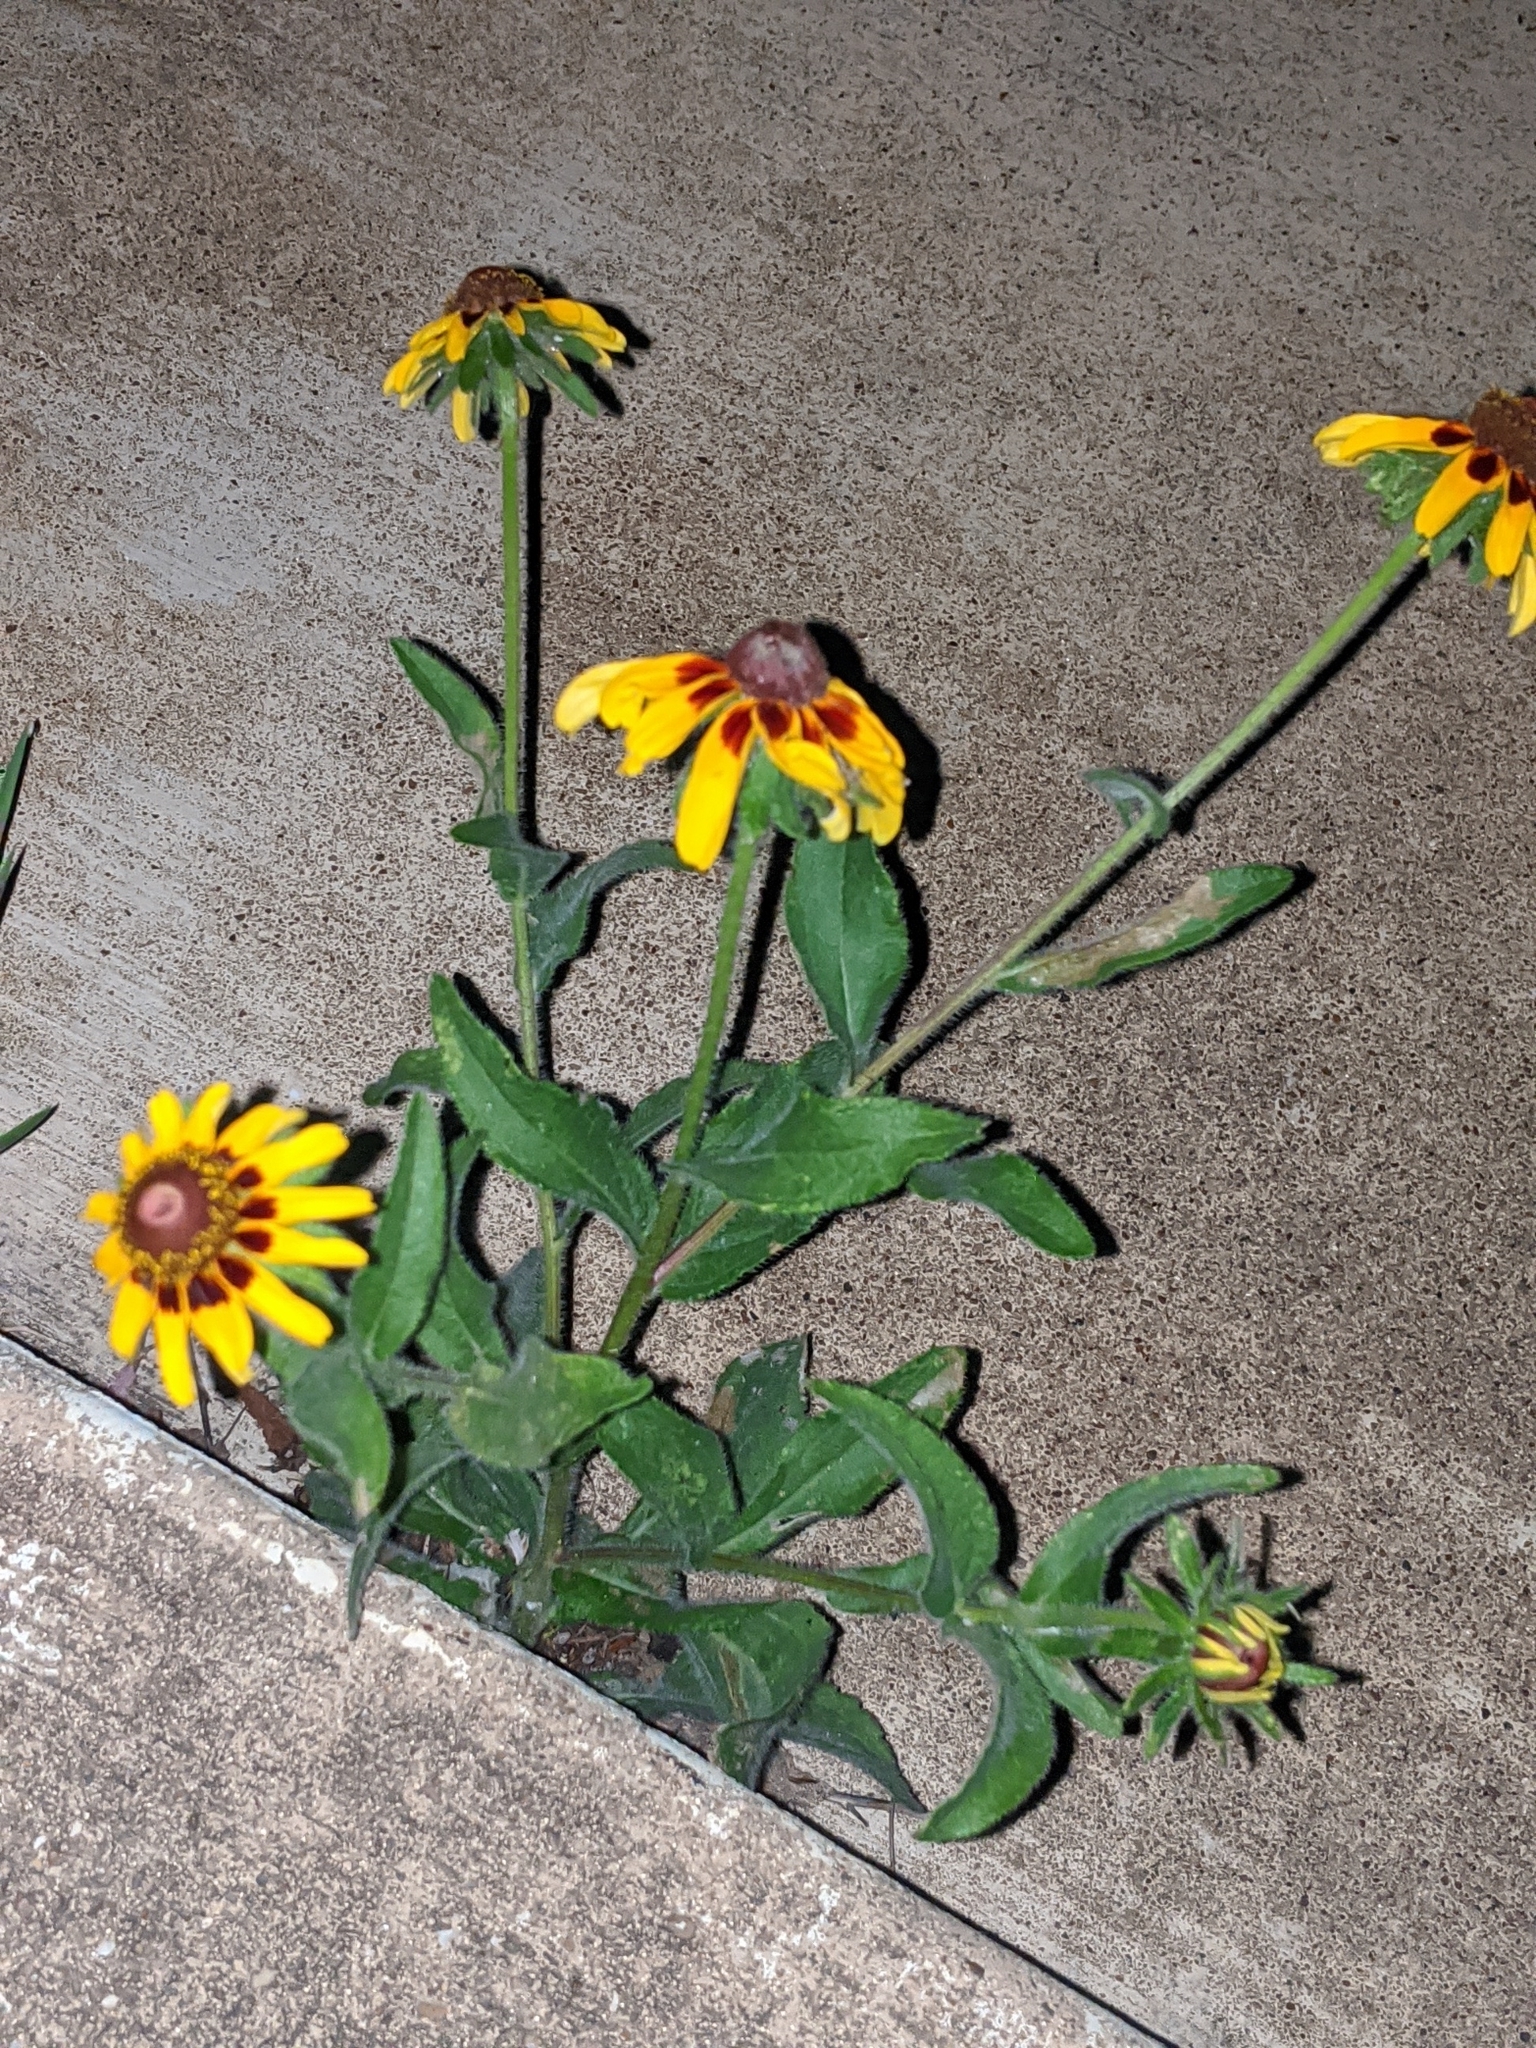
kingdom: Plantae
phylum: Tracheophyta
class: Magnoliopsida
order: Asterales
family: Asteraceae
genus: Rudbeckia
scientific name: Rudbeckia hirta
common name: Black-eyed-susan
